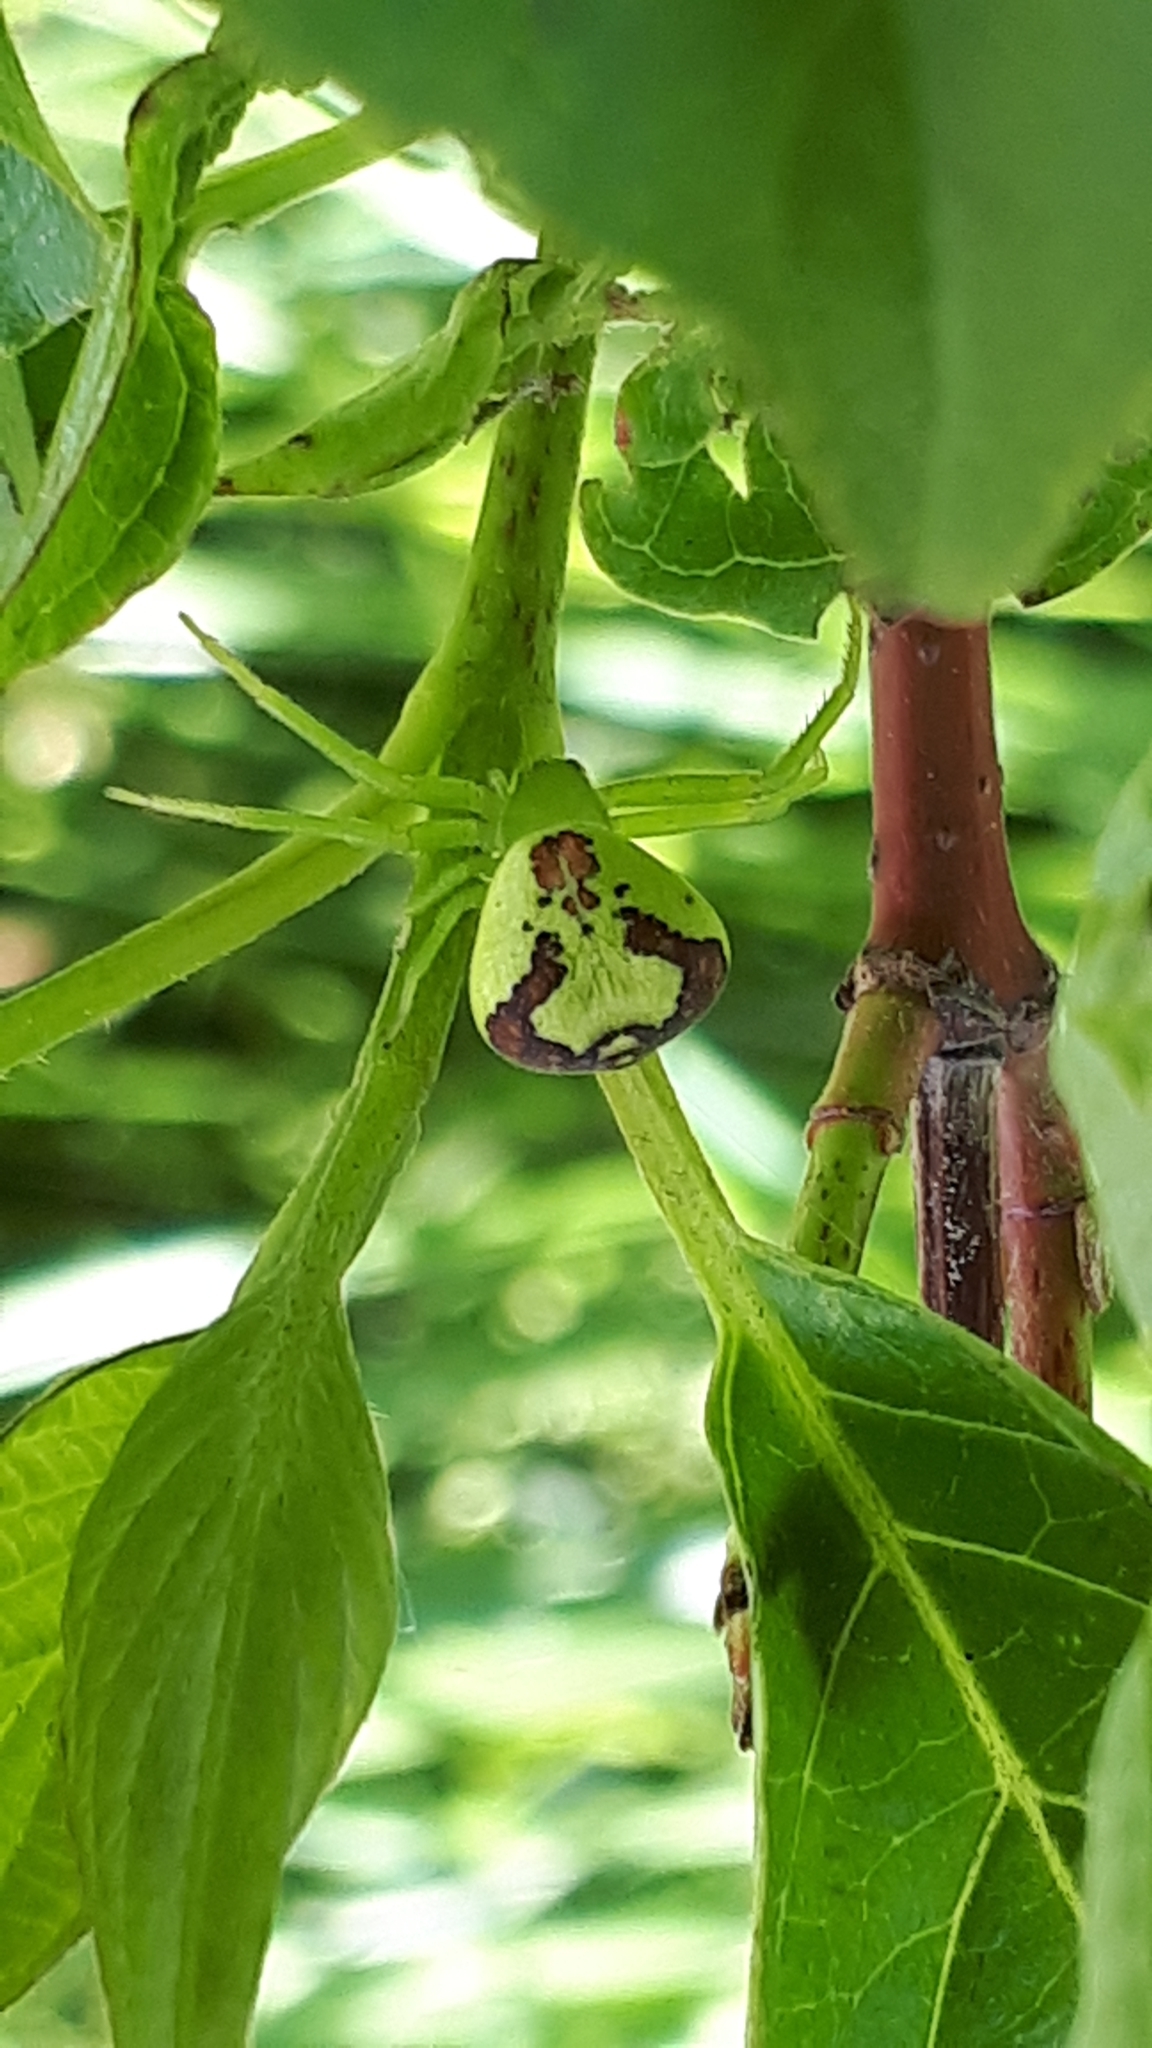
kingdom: Animalia
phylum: Arthropoda
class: Arachnida
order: Araneae
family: Thomisidae
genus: Ebrechtella
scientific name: Ebrechtella tricuspidata
